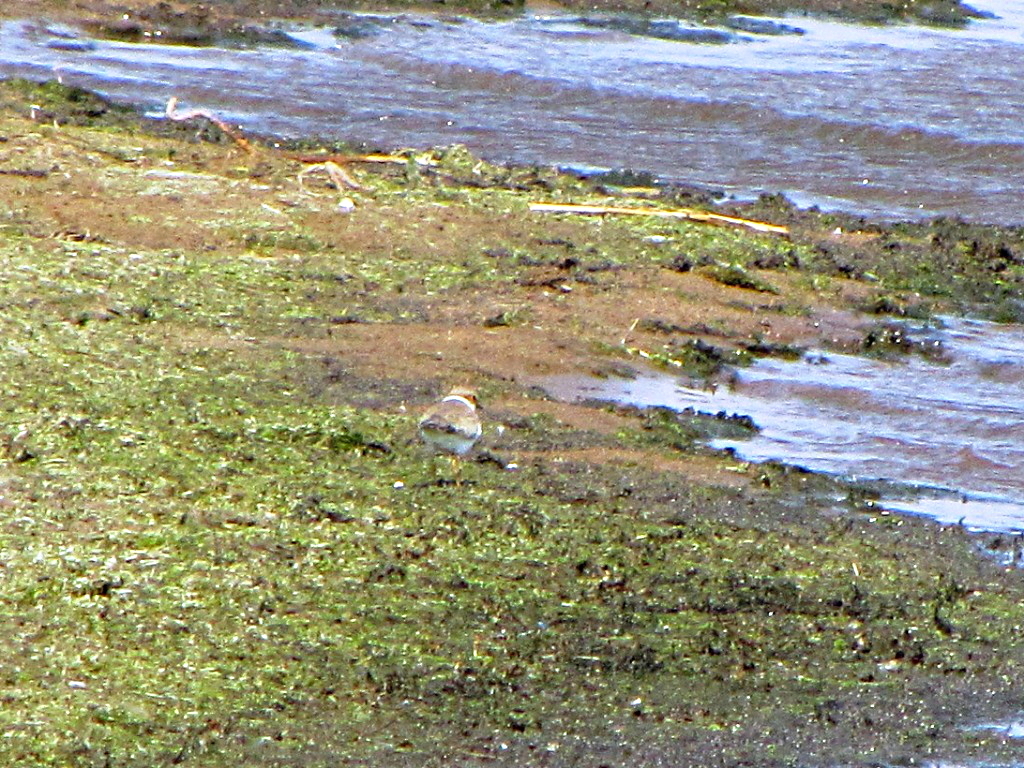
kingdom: Animalia
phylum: Chordata
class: Aves
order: Charadriiformes
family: Charadriidae
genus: Charadrius
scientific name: Charadrius dubius
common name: Little ringed plover
